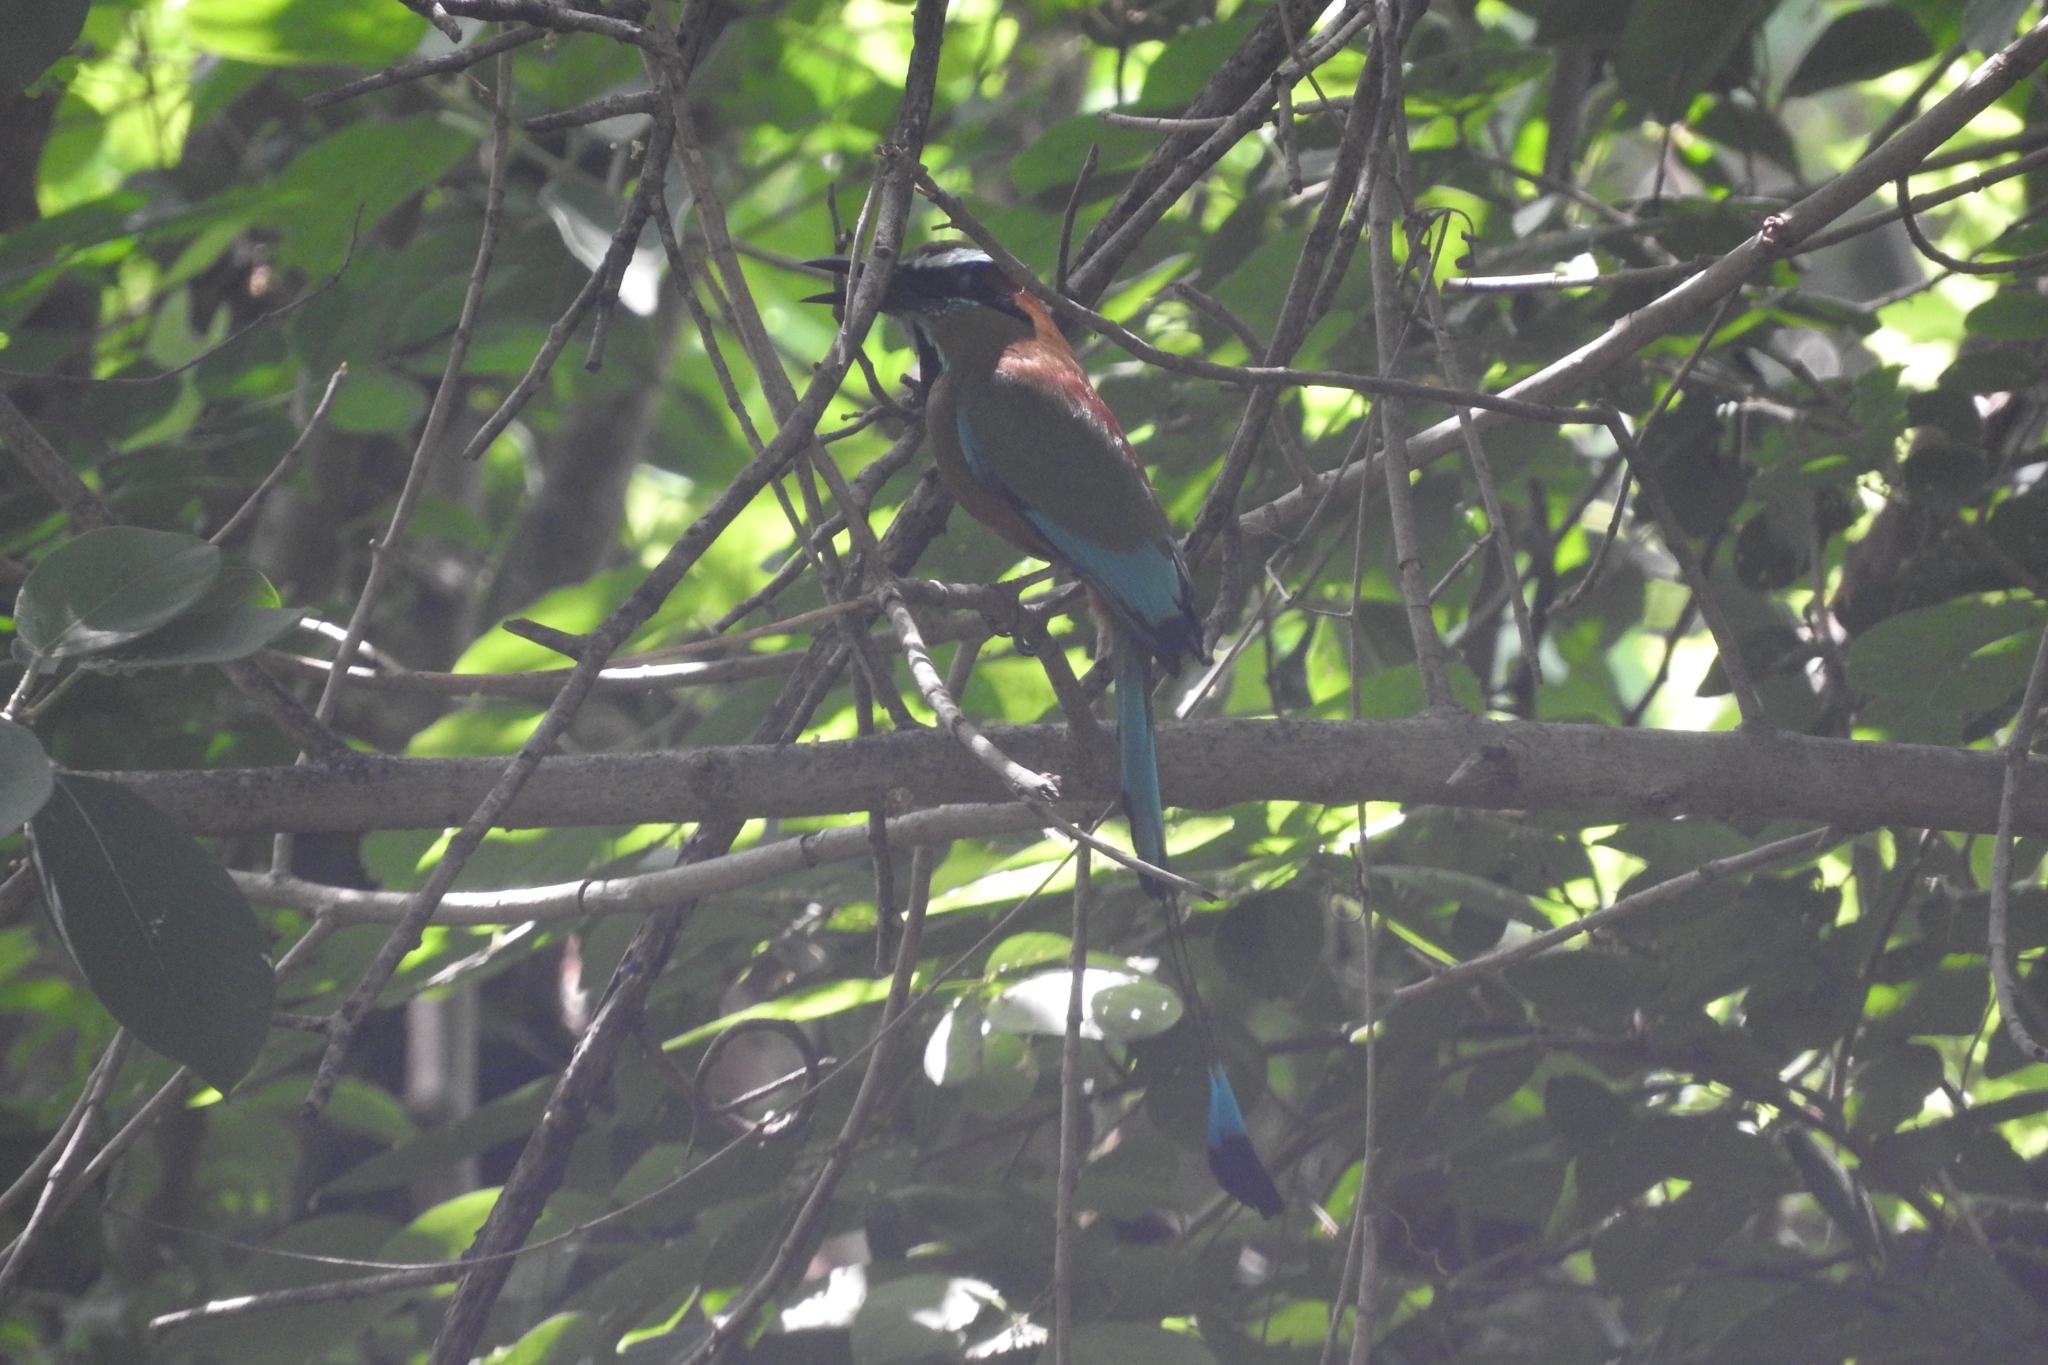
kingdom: Animalia
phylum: Chordata
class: Aves
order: Coraciiformes
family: Momotidae
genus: Eumomota
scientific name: Eumomota superciliosa
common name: Turquoise-browed motmot
